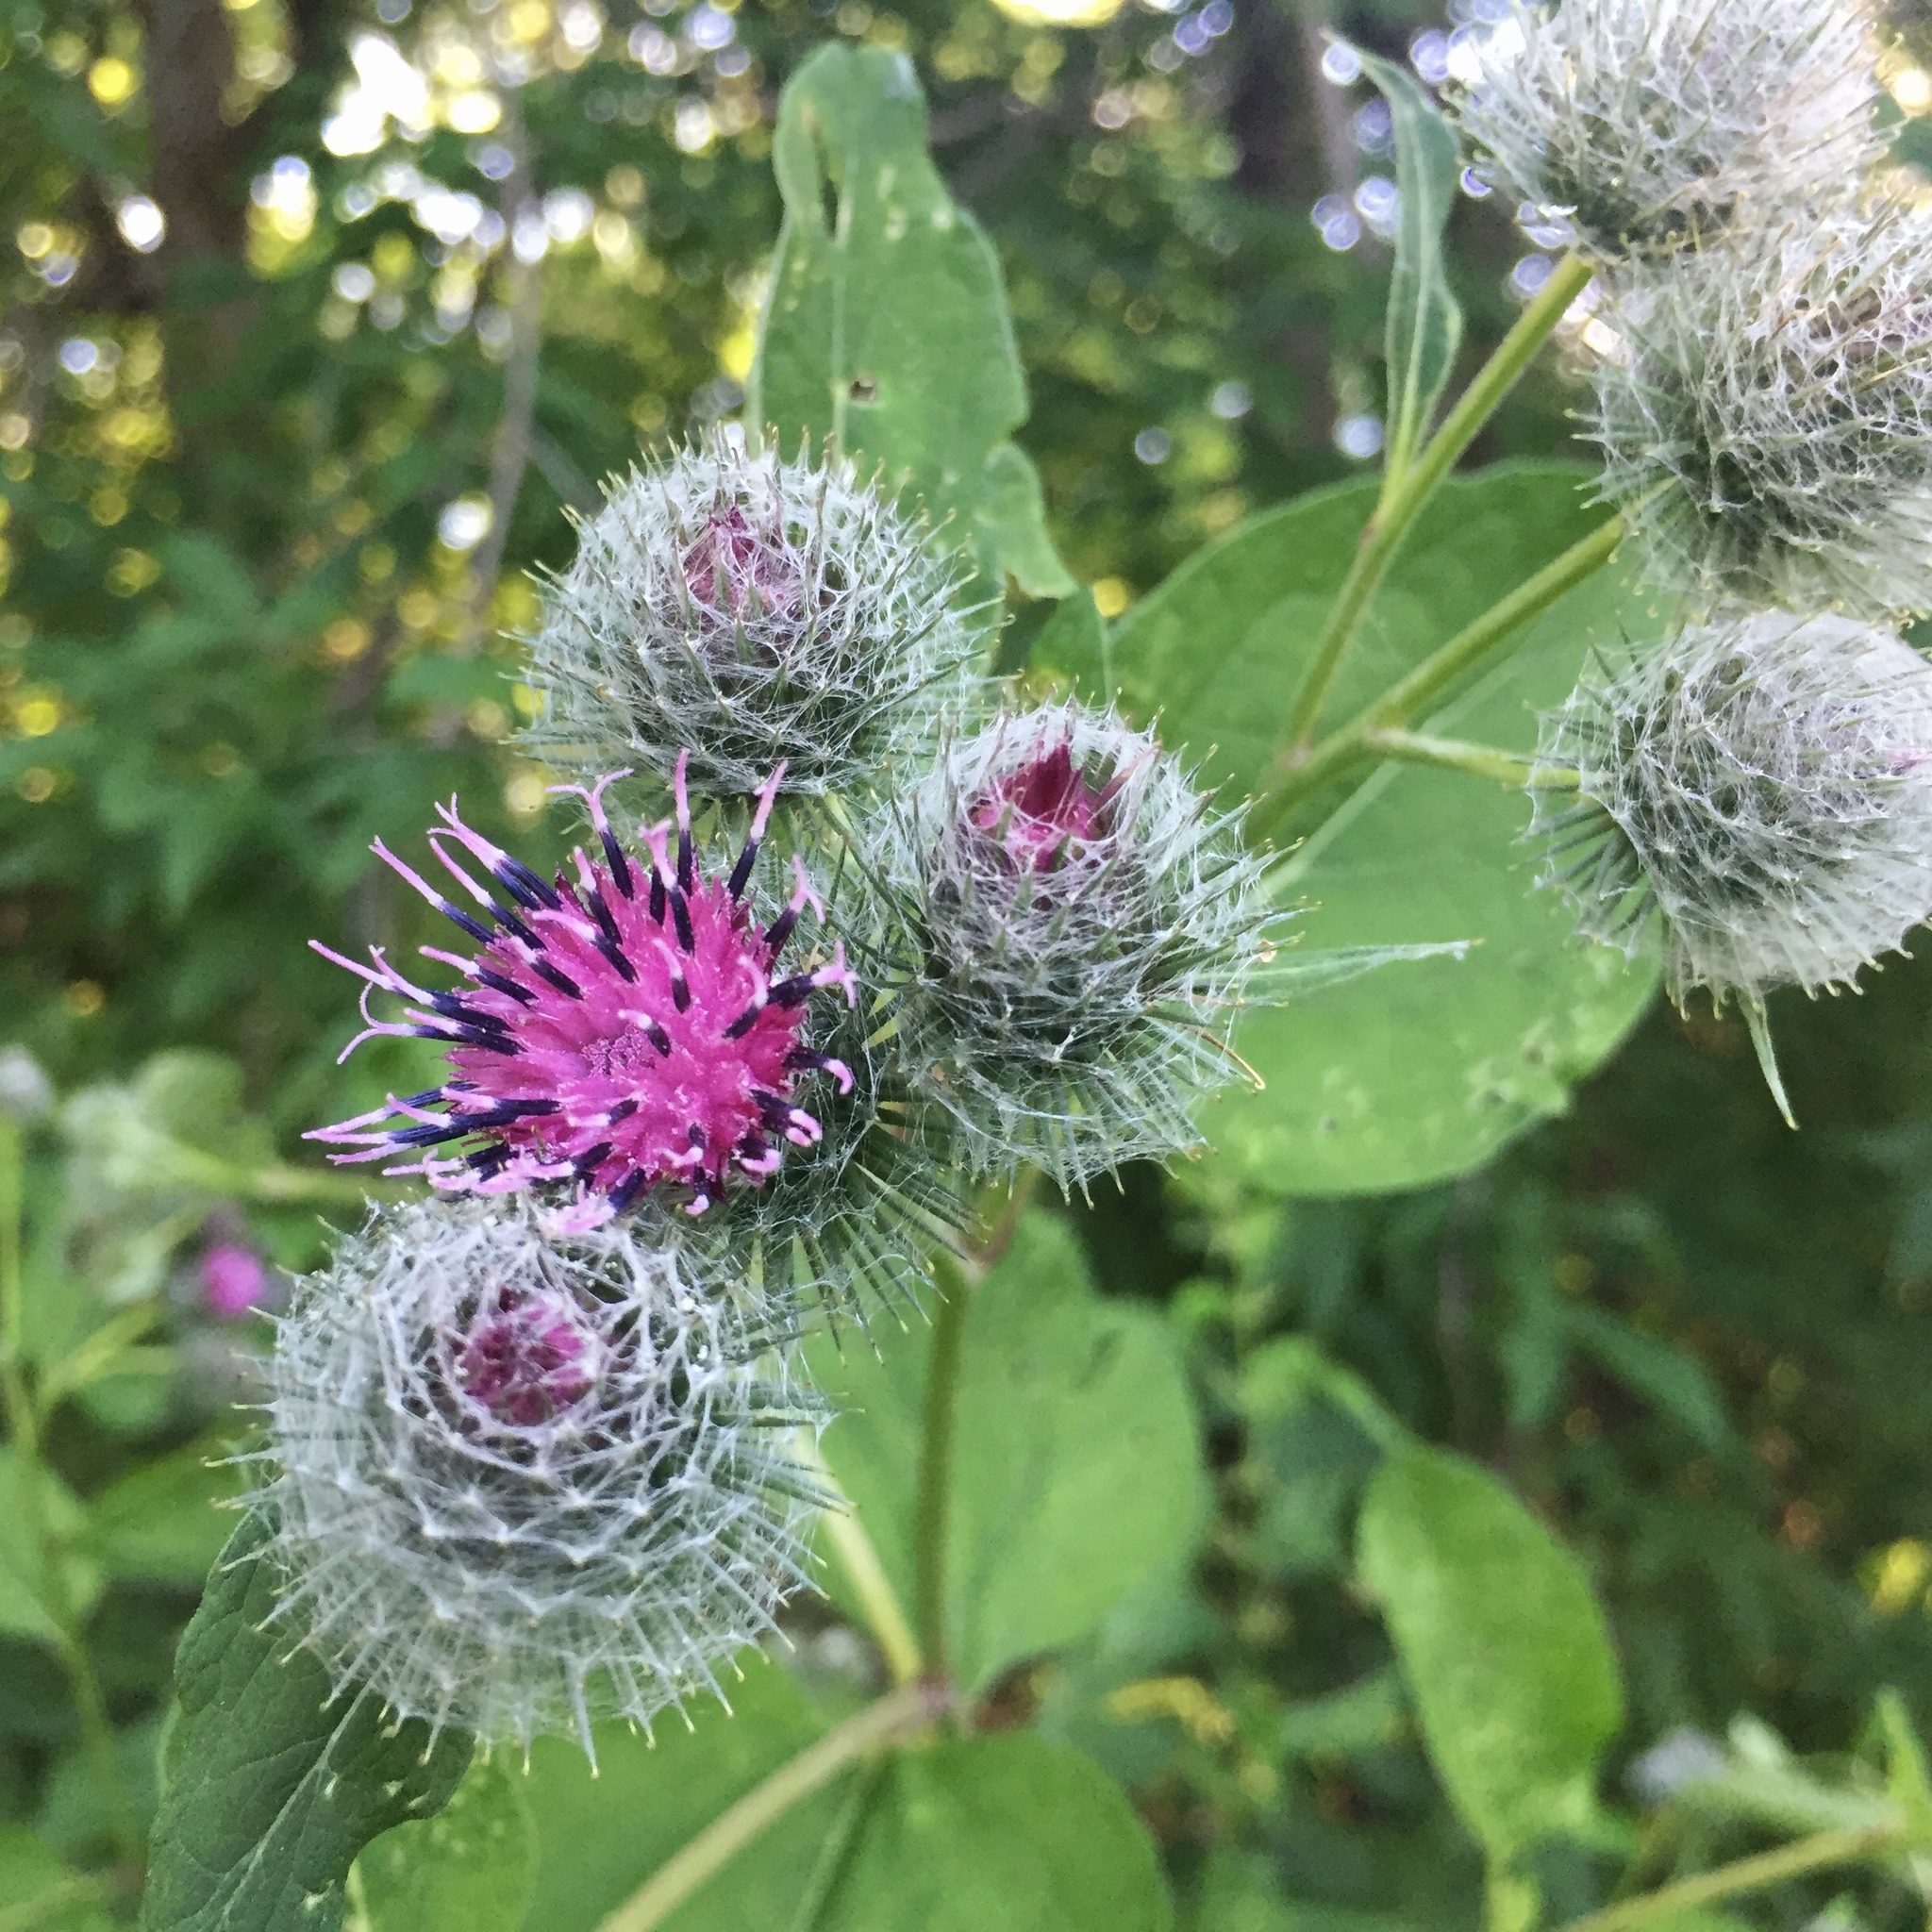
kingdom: Plantae
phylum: Tracheophyta
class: Magnoliopsida
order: Asterales
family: Asteraceae
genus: Arctium
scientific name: Arctium tomentosum
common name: Woolly burdock
